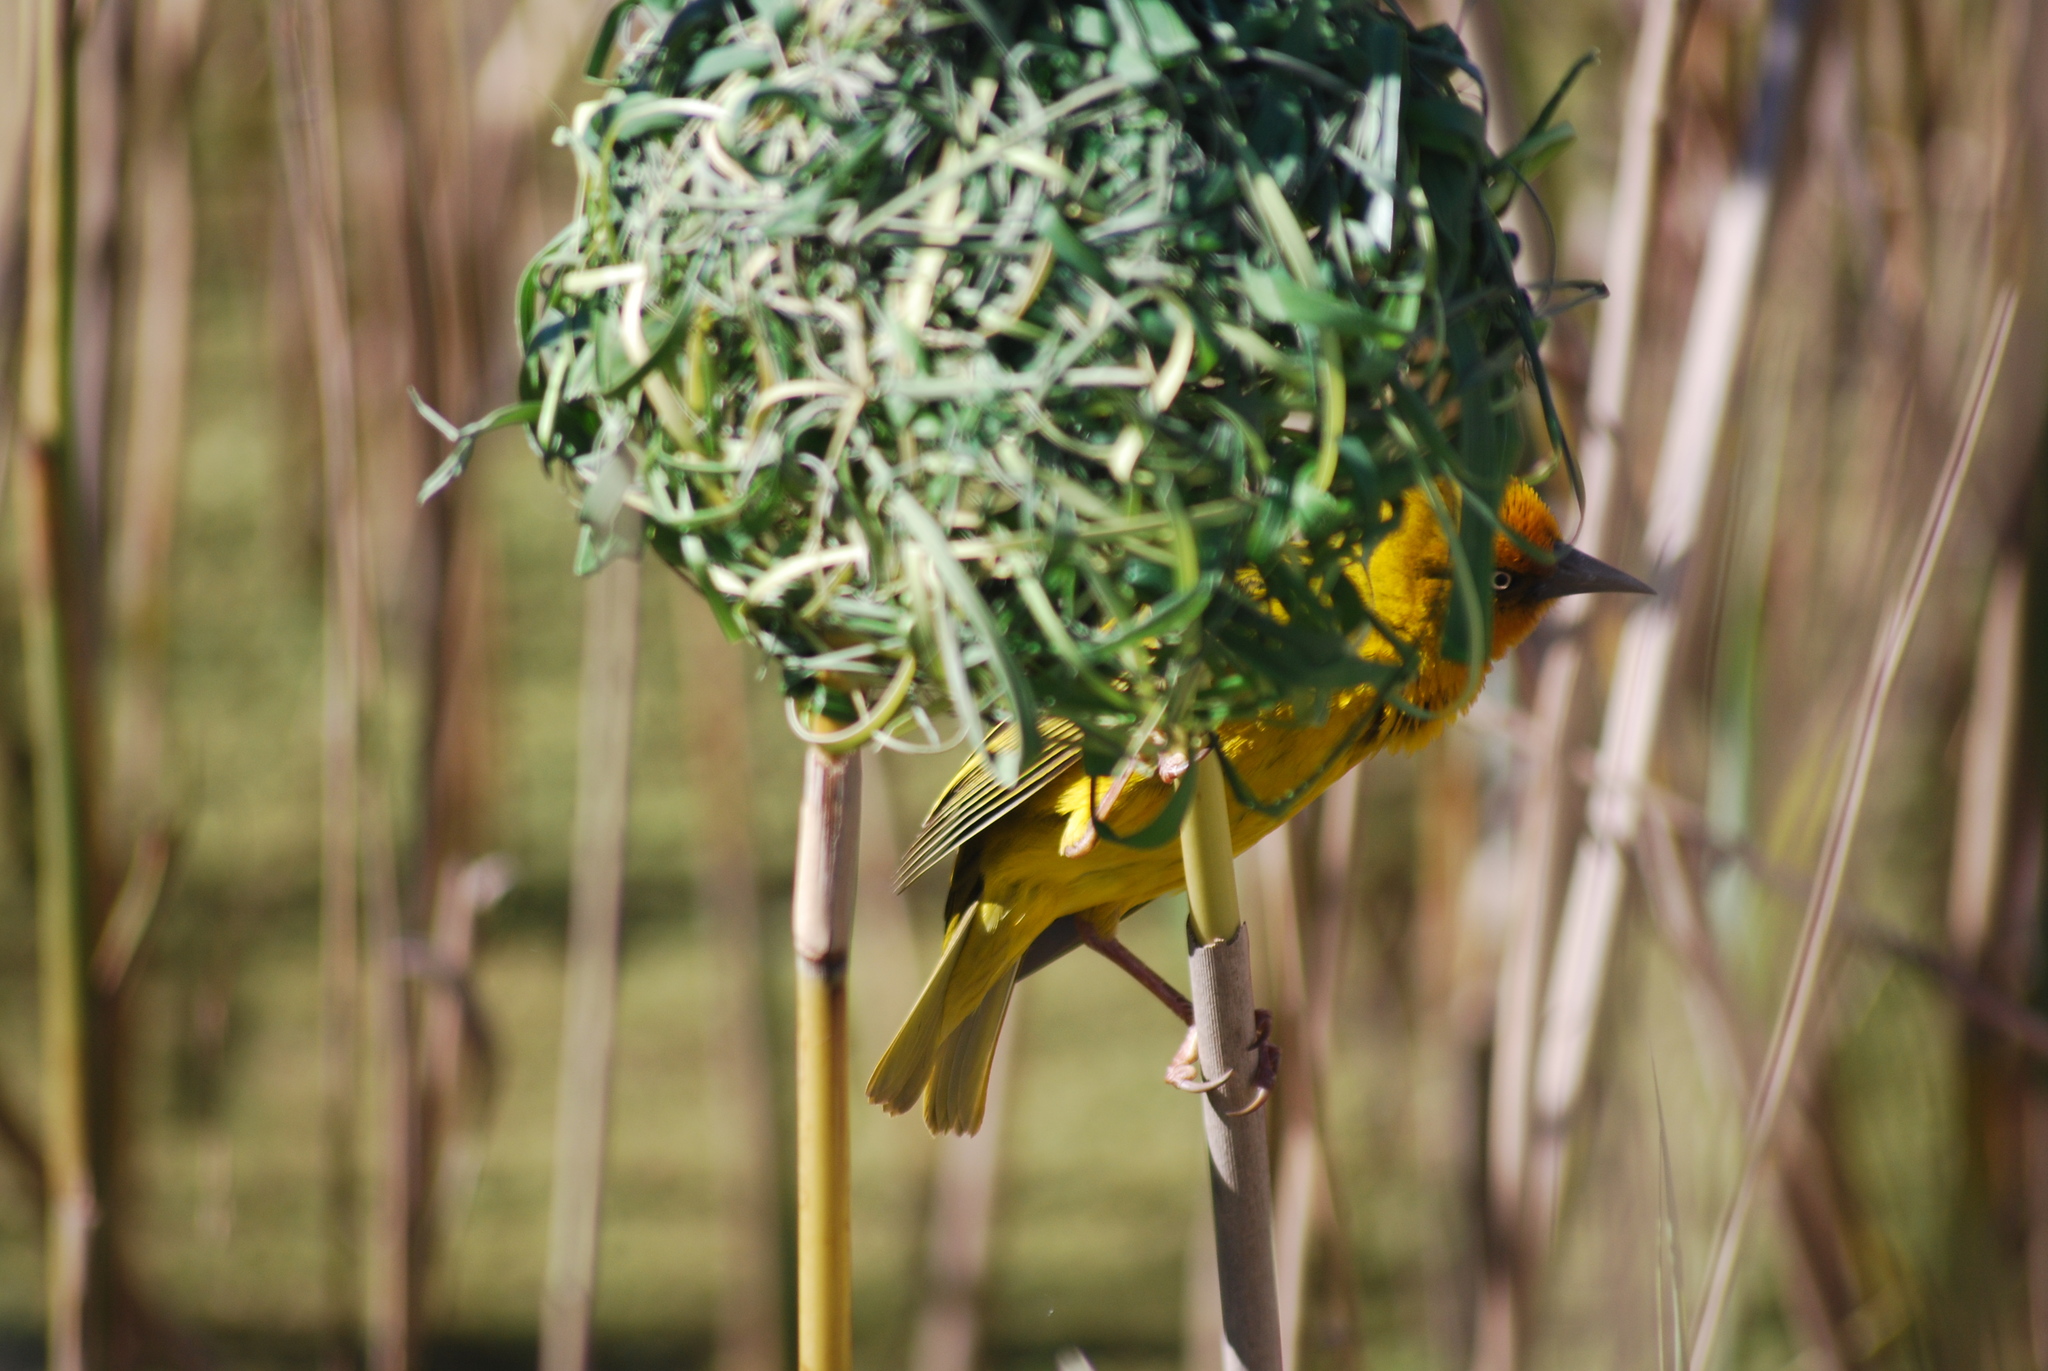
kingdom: Animalia
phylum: Chordata
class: Aves
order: Passeriformes
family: Ploceidae
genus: Ploceus
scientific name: Ploceus capensis
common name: Cape weaver
